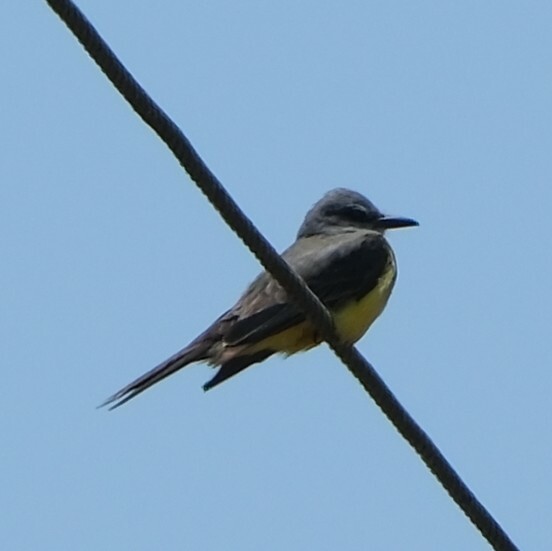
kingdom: Animalia
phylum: Chordata
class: Aves
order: Passeriformes
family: Tyrannidae
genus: Tyrannus
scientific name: Tyrannus melancholicus
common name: Tropical kingbird
